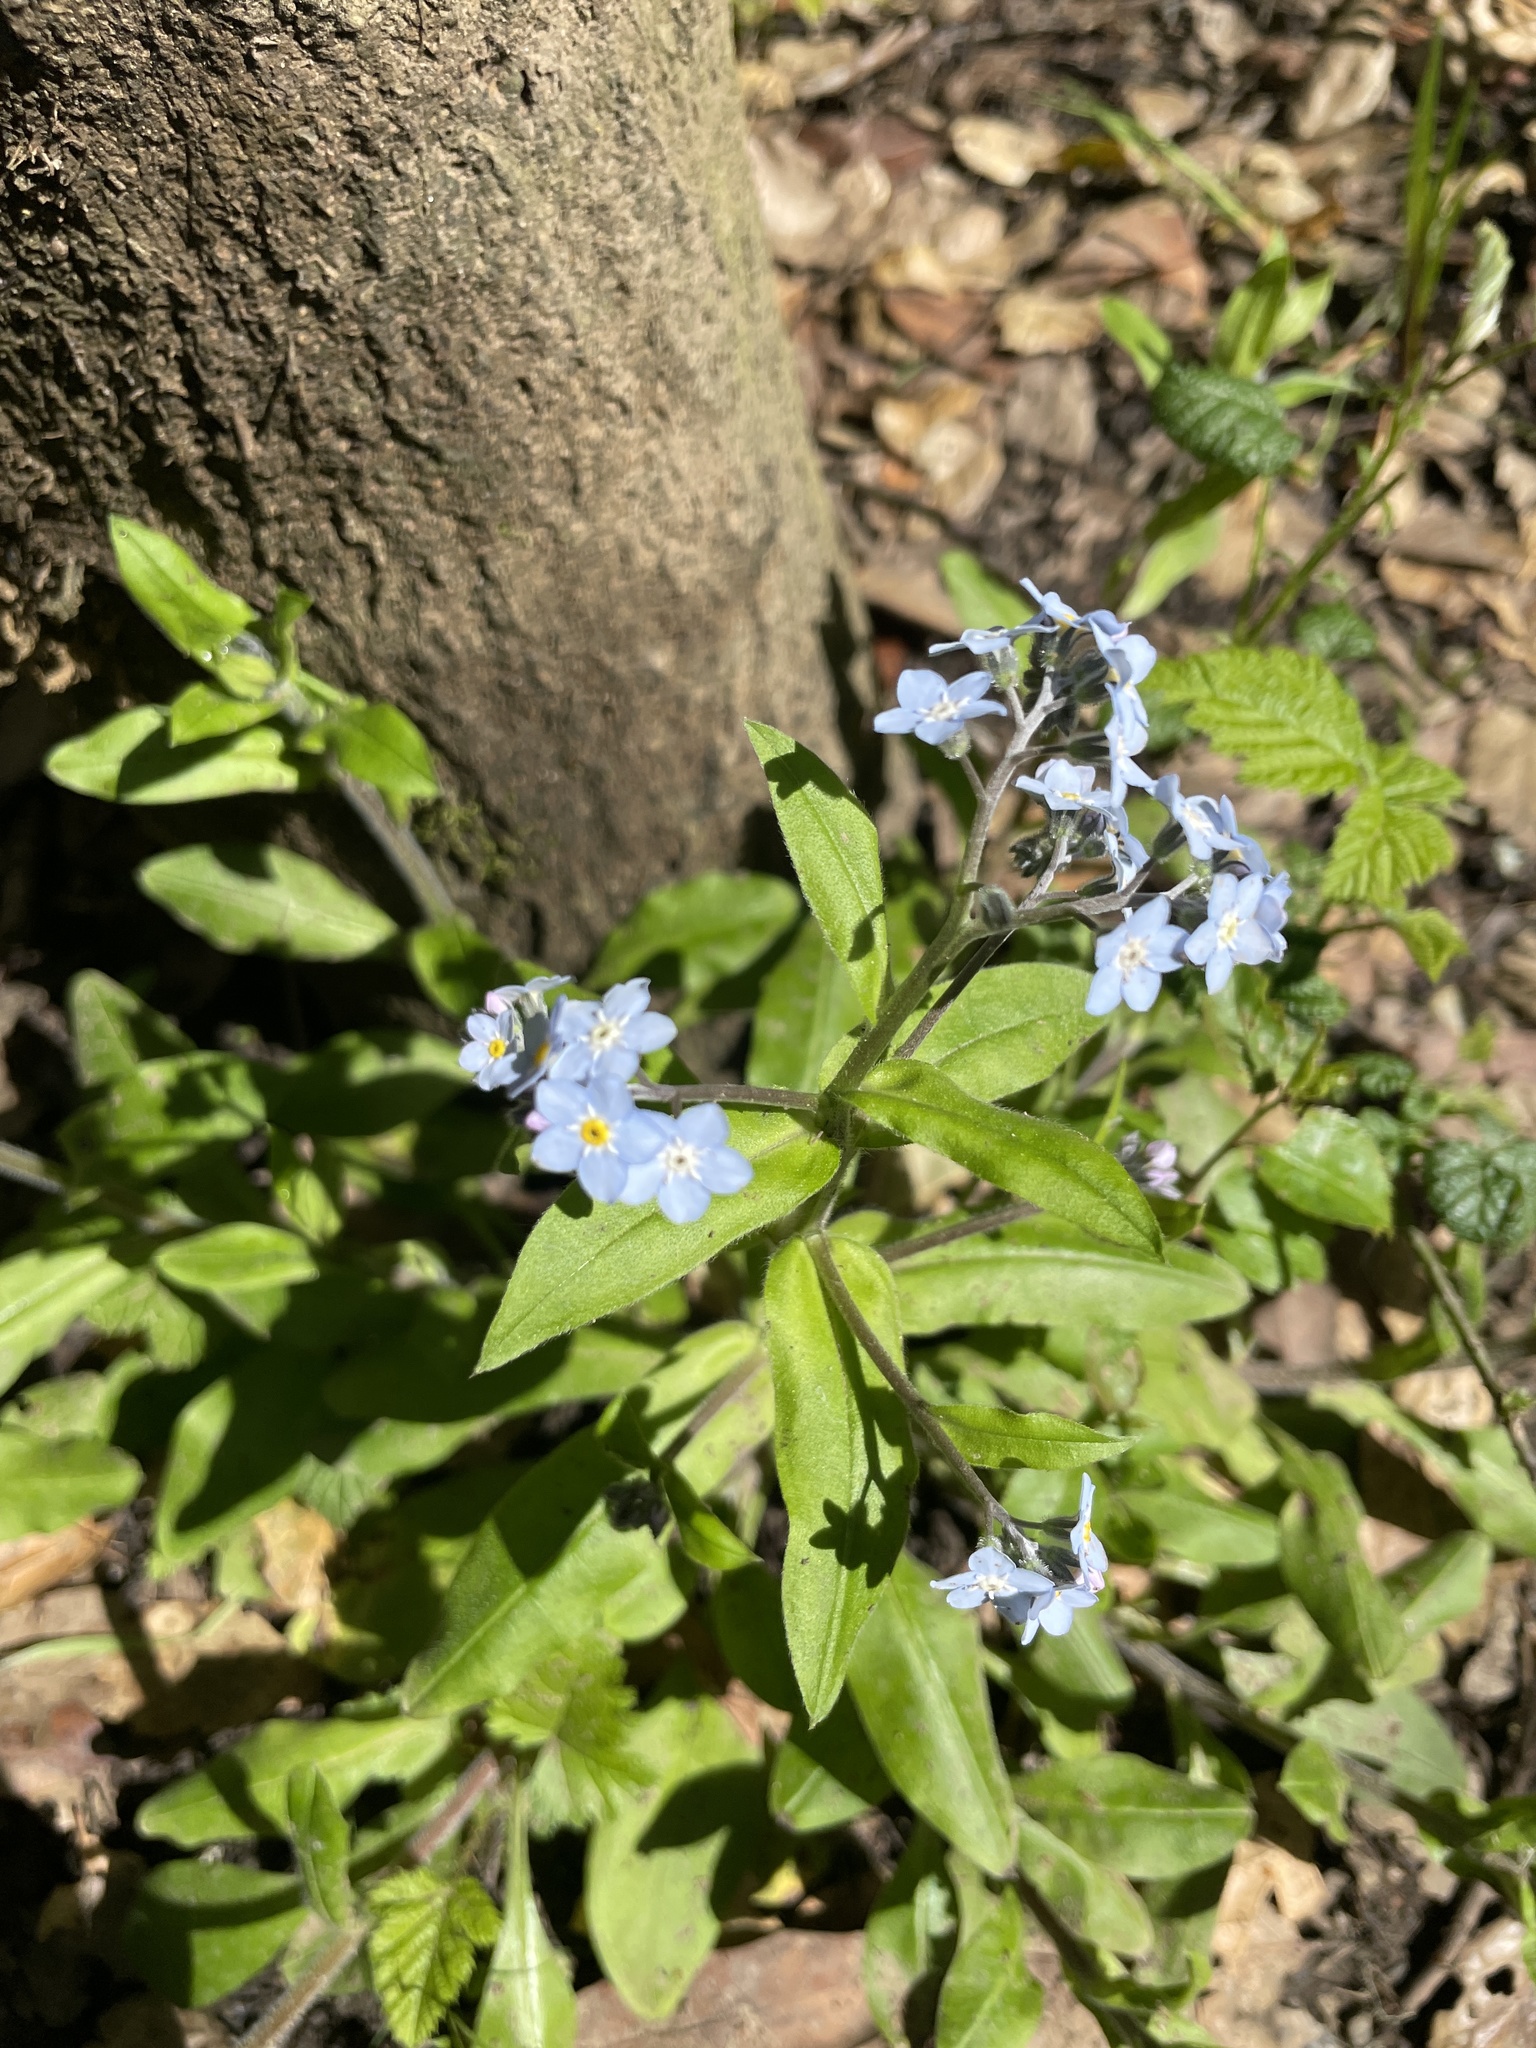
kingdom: Plantae
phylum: Tracheophyta
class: Magnoliopsida
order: Boraginales
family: Boraginaceae
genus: Myosotis
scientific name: Myosotis latifolia
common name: Broadleaf forget-me-not
